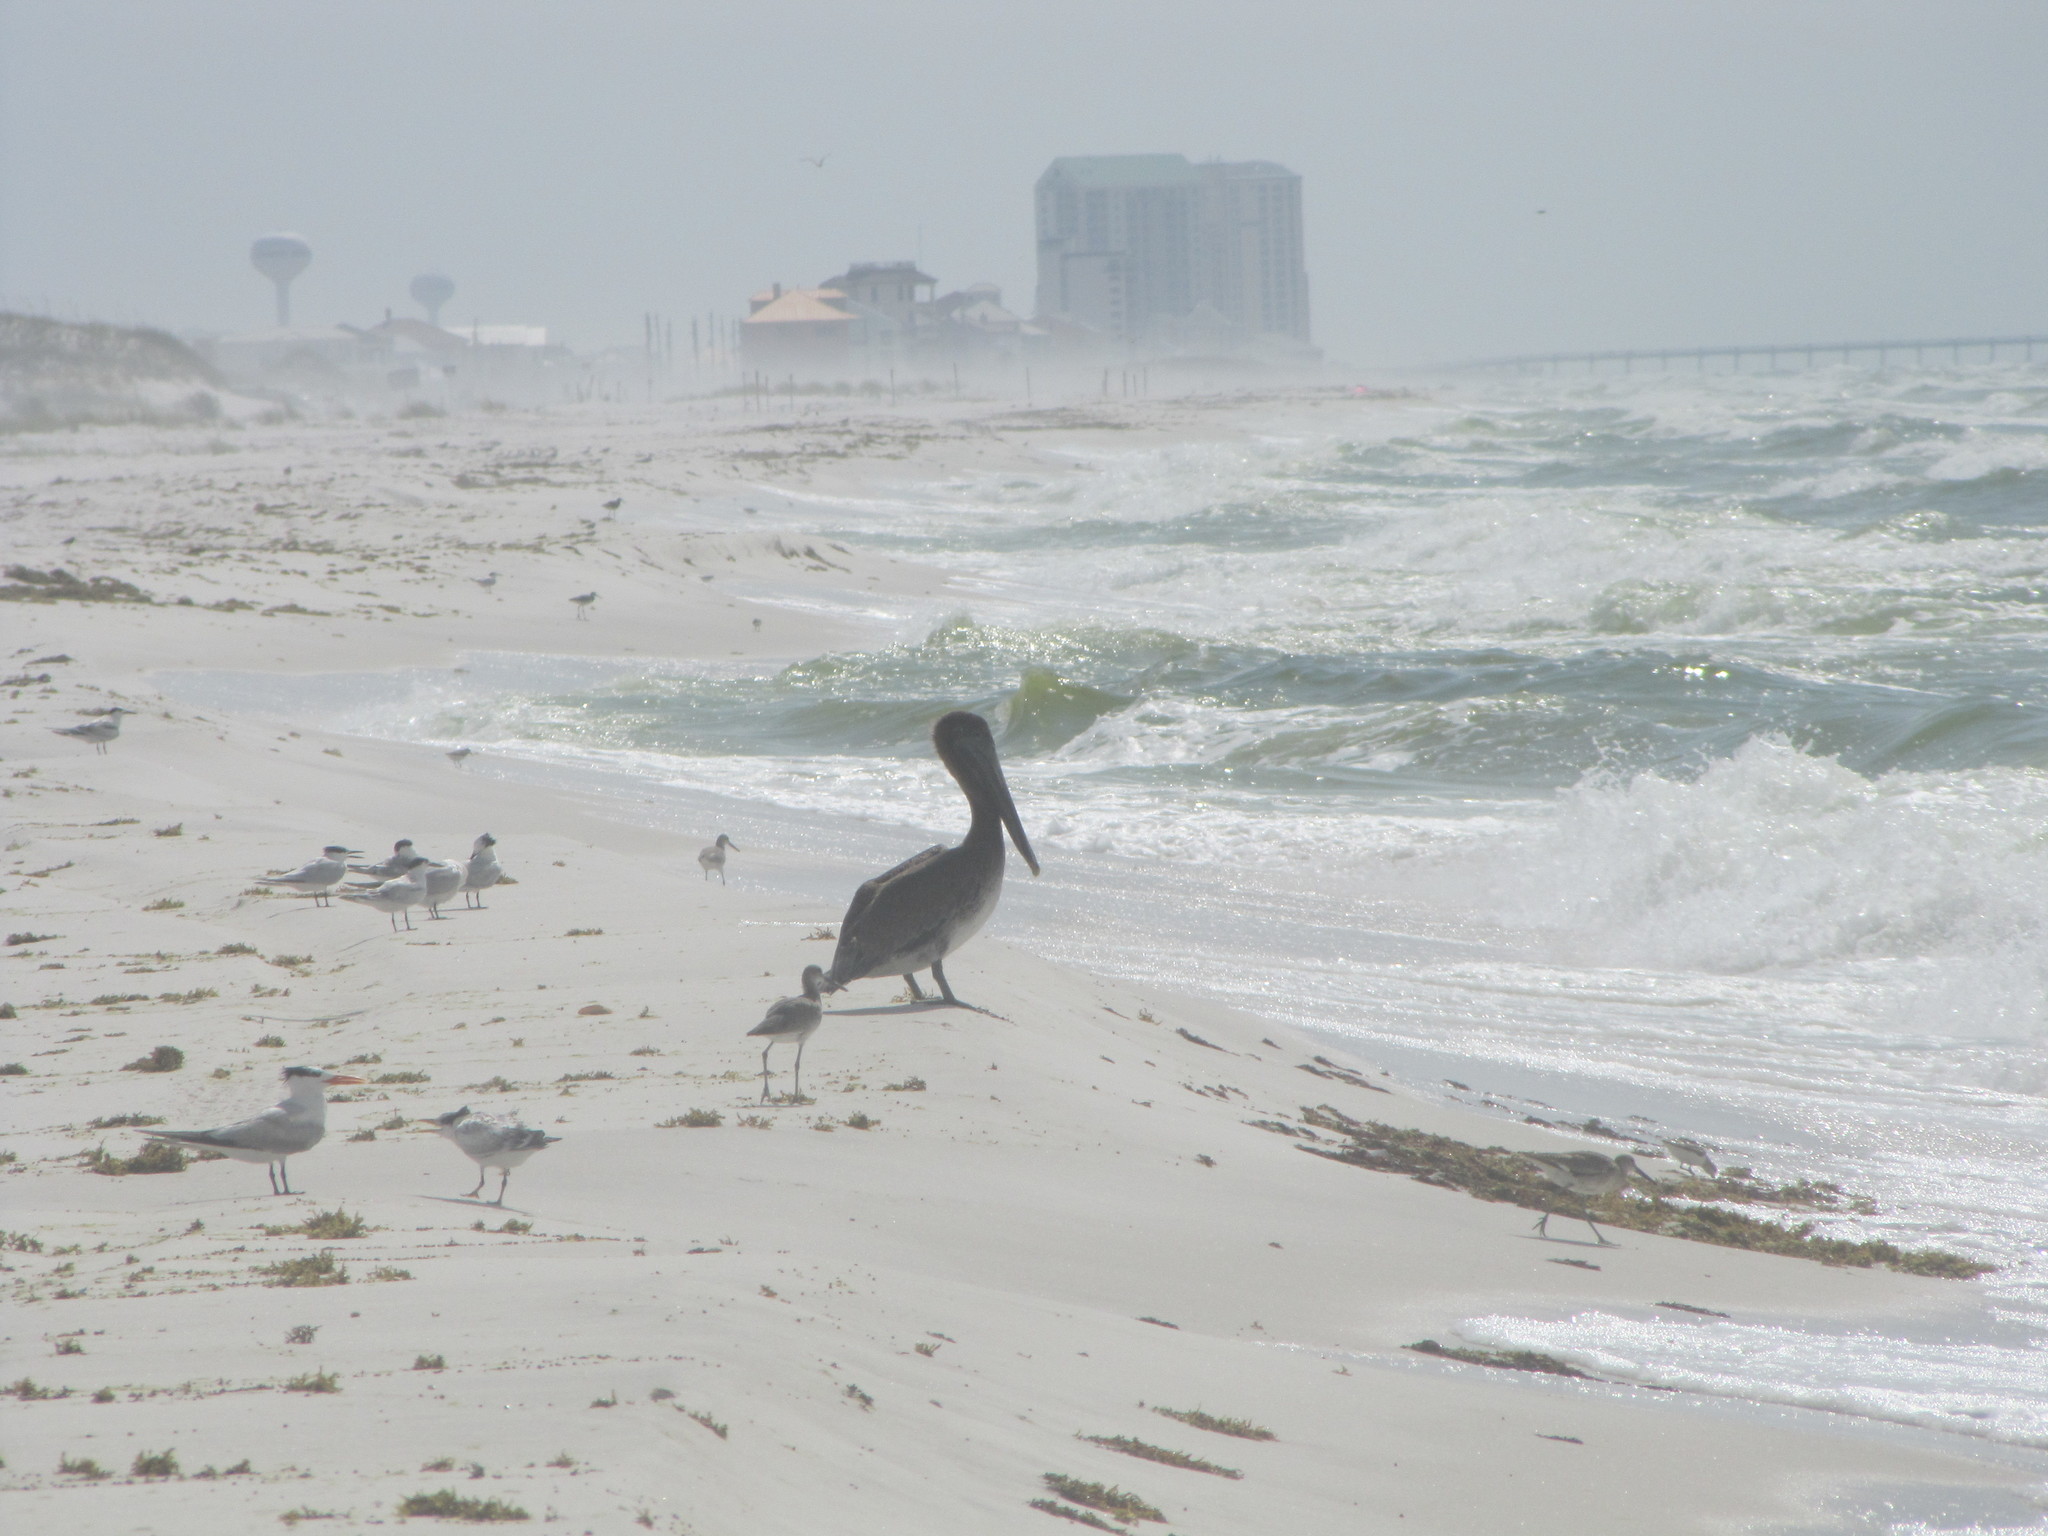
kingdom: Animalia
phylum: Chordata
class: Aves
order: Charadriiformes
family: Laridae
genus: Thalasseus
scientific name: Thalasseus maximus
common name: Royal tern
